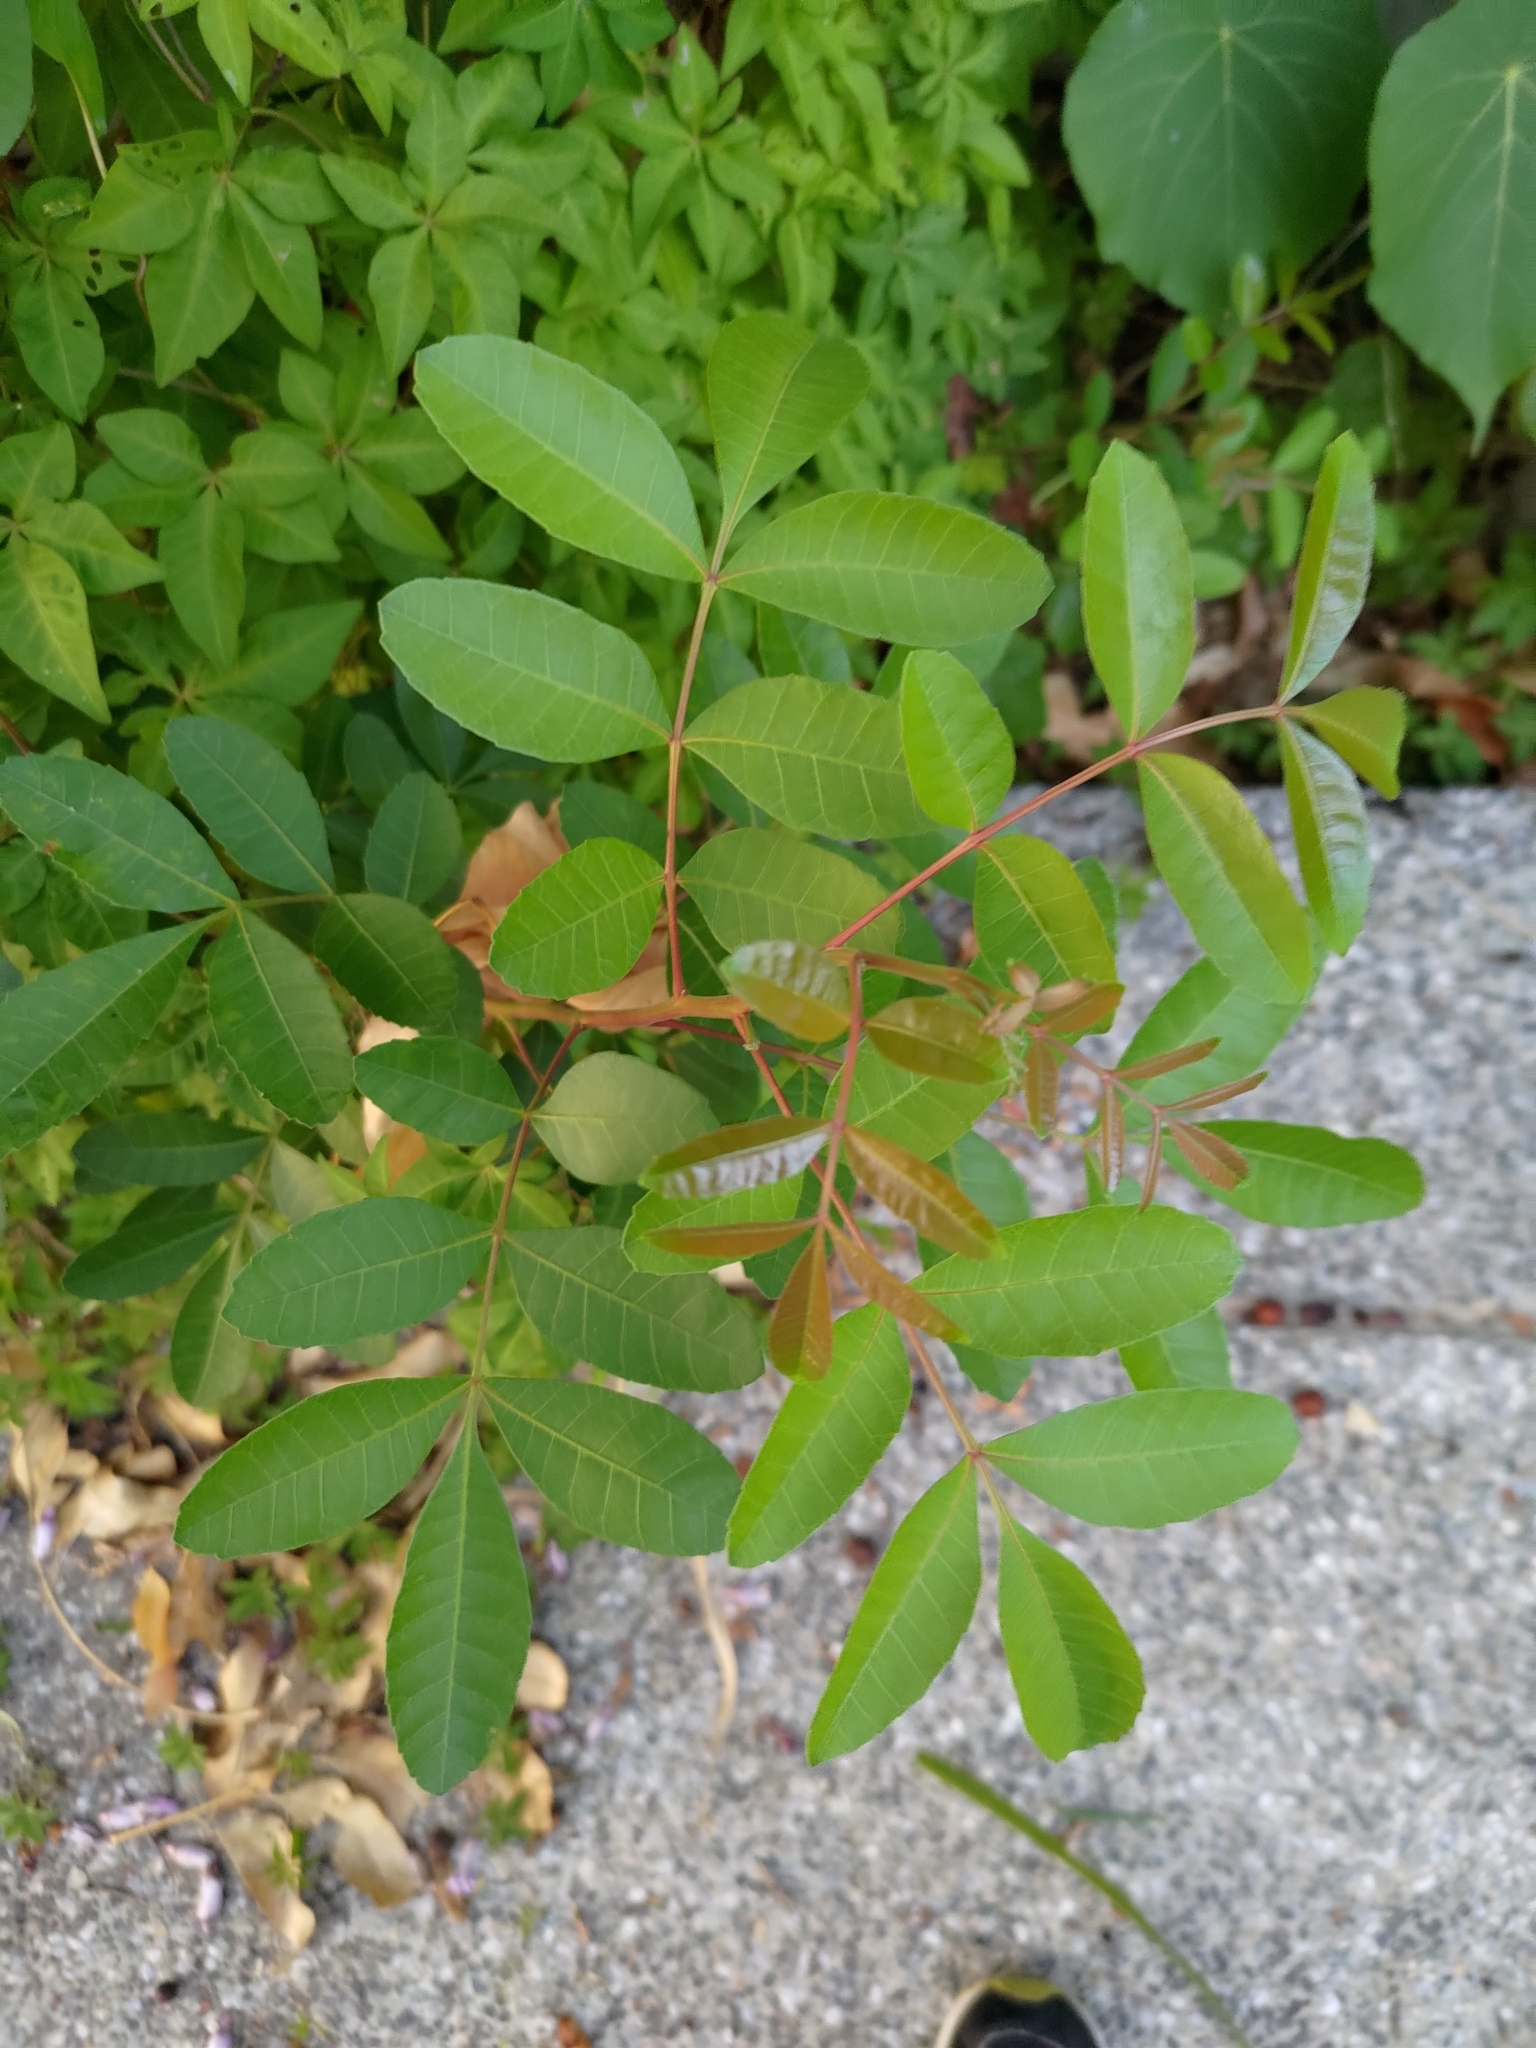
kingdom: Plantae
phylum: Tracheophyta
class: Magnoliopsida
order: Sapindales
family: Anacardiaceae
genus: Schinus
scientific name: Schinus terebinthifolia
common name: Brazilian peppertree
